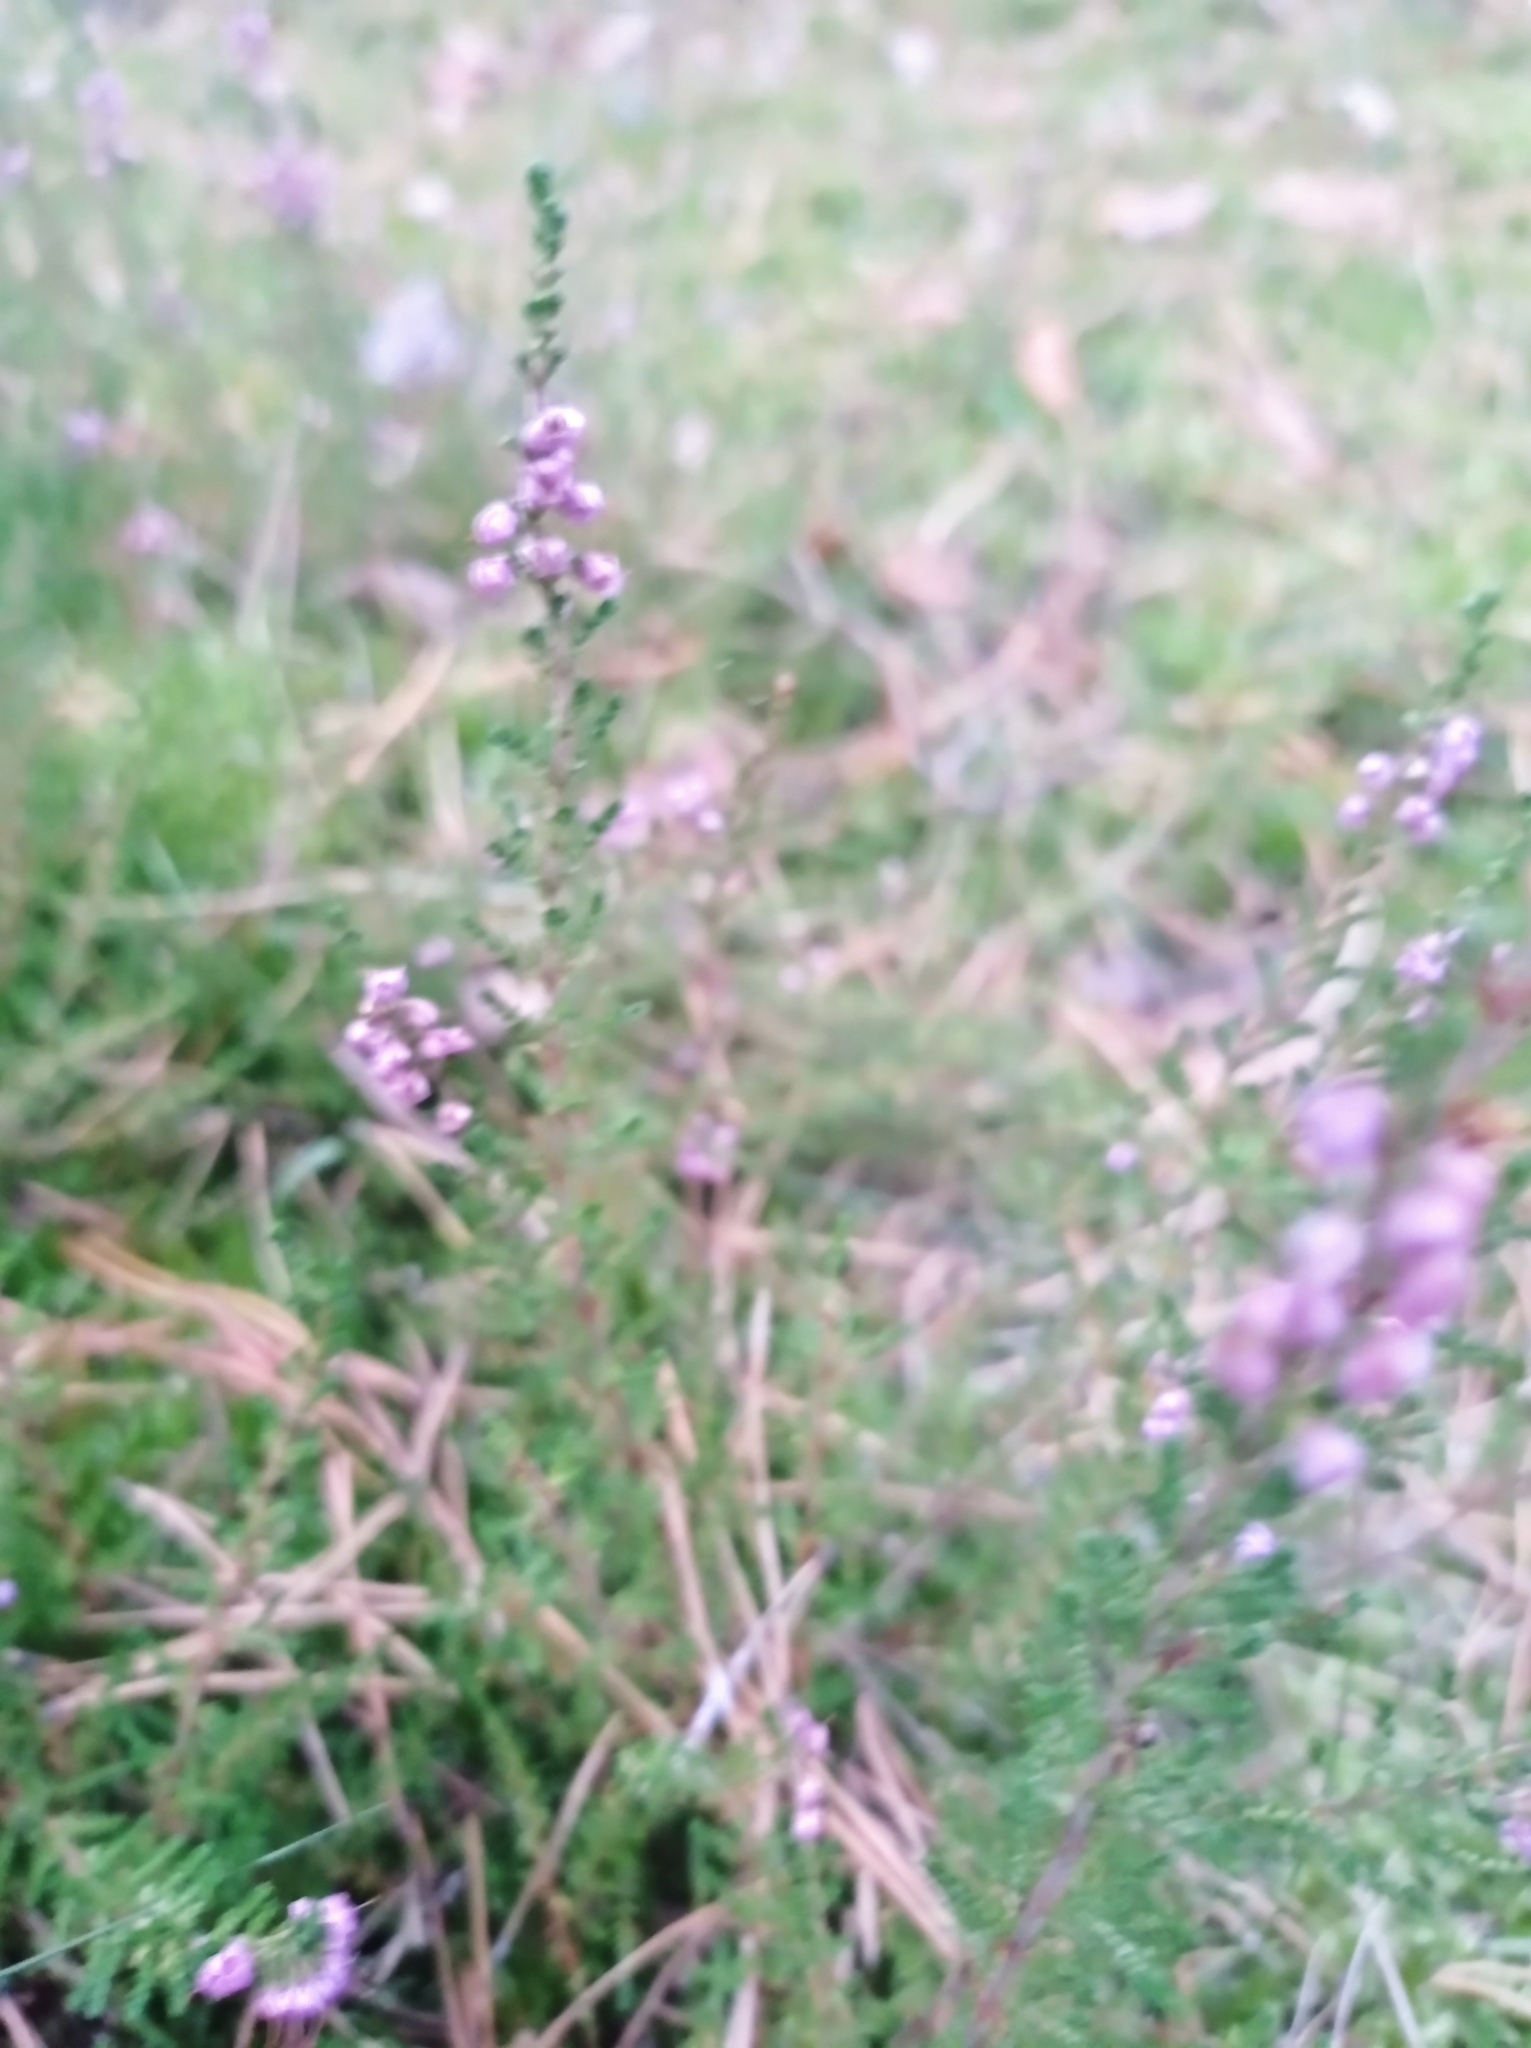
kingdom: Plantae
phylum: Tracheophyta
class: Magnoliopsida
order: Ericales
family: Ericaceae
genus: Calluna
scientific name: Calluna vulgaris
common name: Heather
